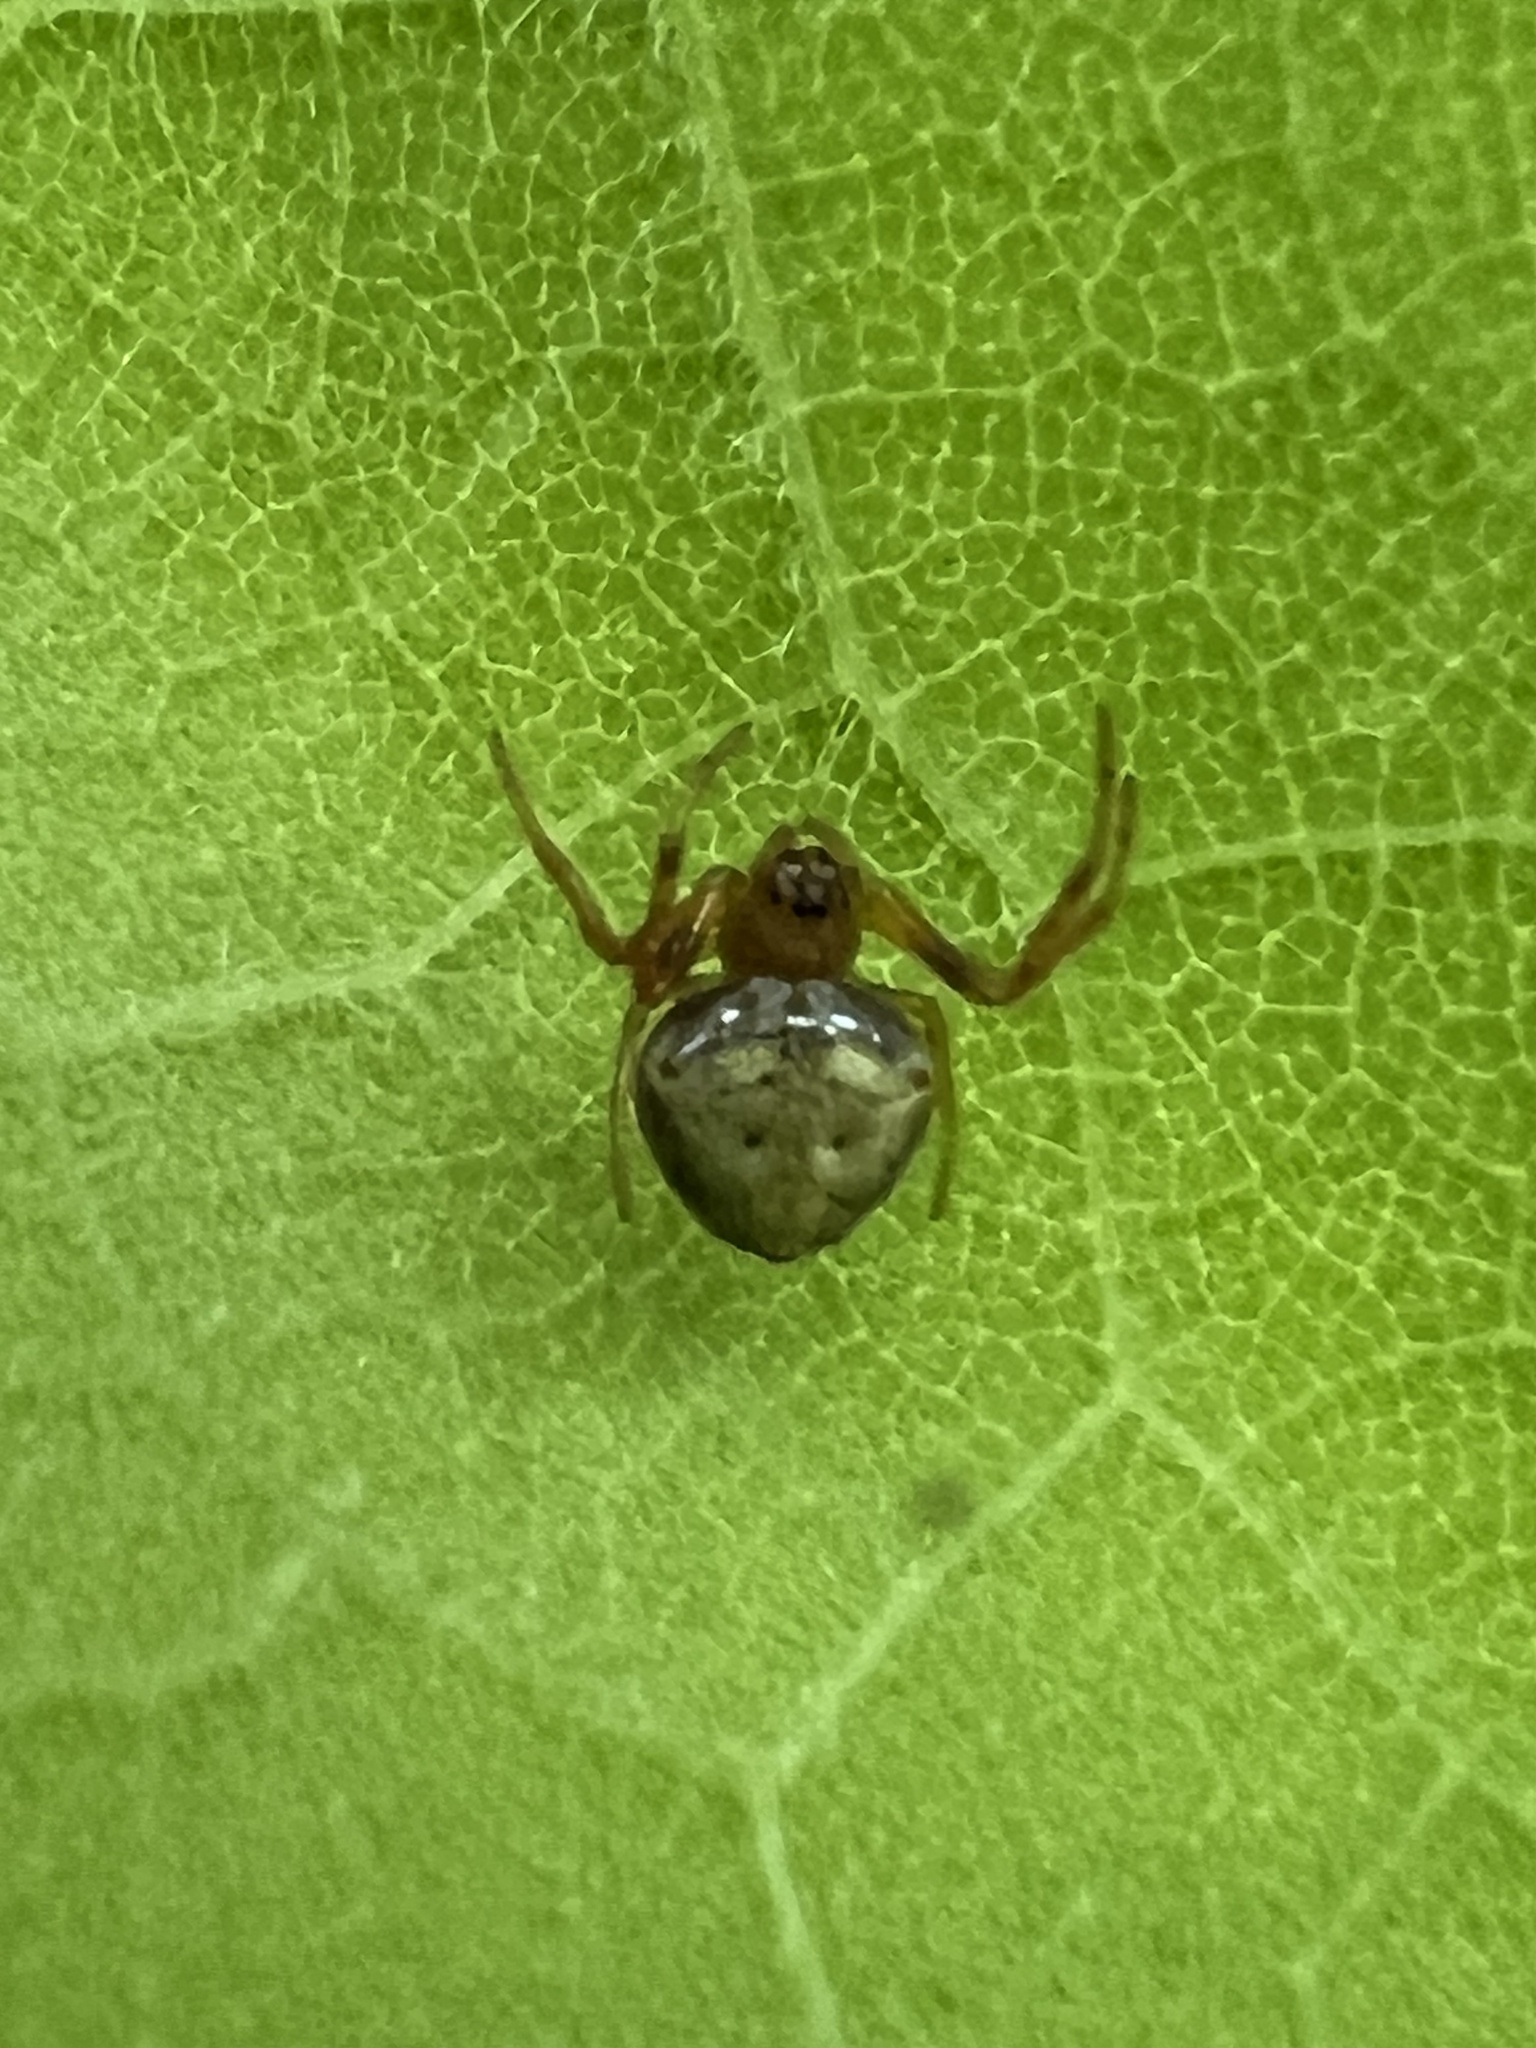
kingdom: Animalia
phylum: Arthropoda
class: Arachnida
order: Araneae
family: Araneidae
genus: Verrucosa
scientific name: Verrucosa arenata
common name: Orb weavers
